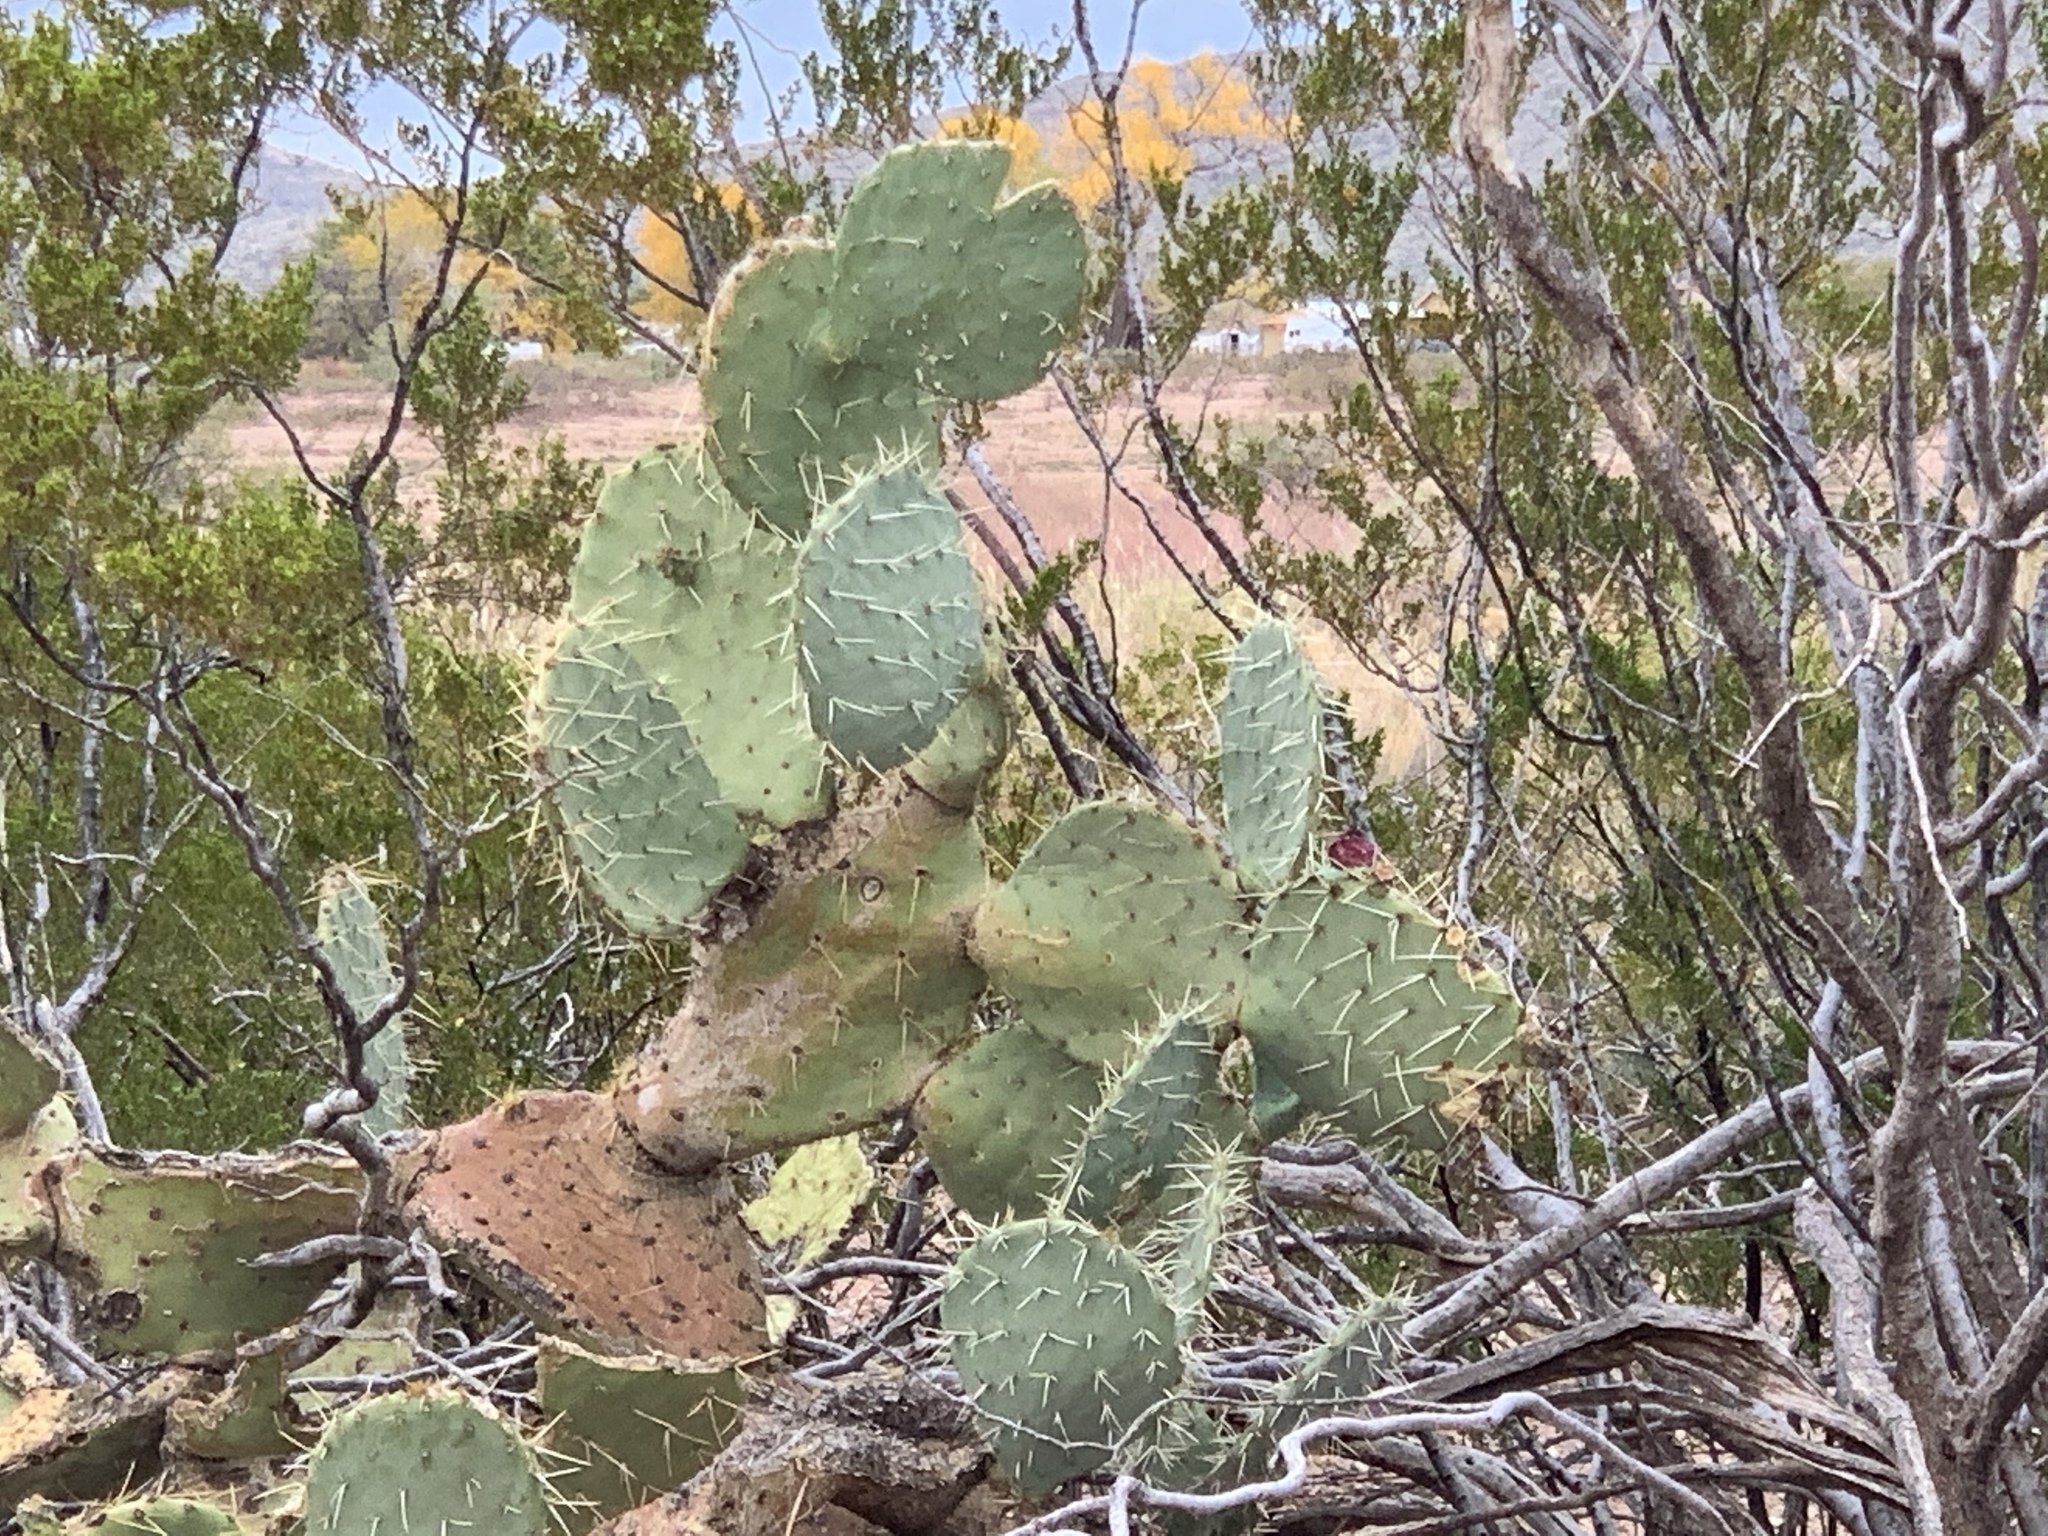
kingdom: Plantae
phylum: Tracheophyta
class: Magnoliopsida
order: Caryophyllales
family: Cactaceae
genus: Opuntia
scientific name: Opuntia engelmannii
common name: Cactus-apple
